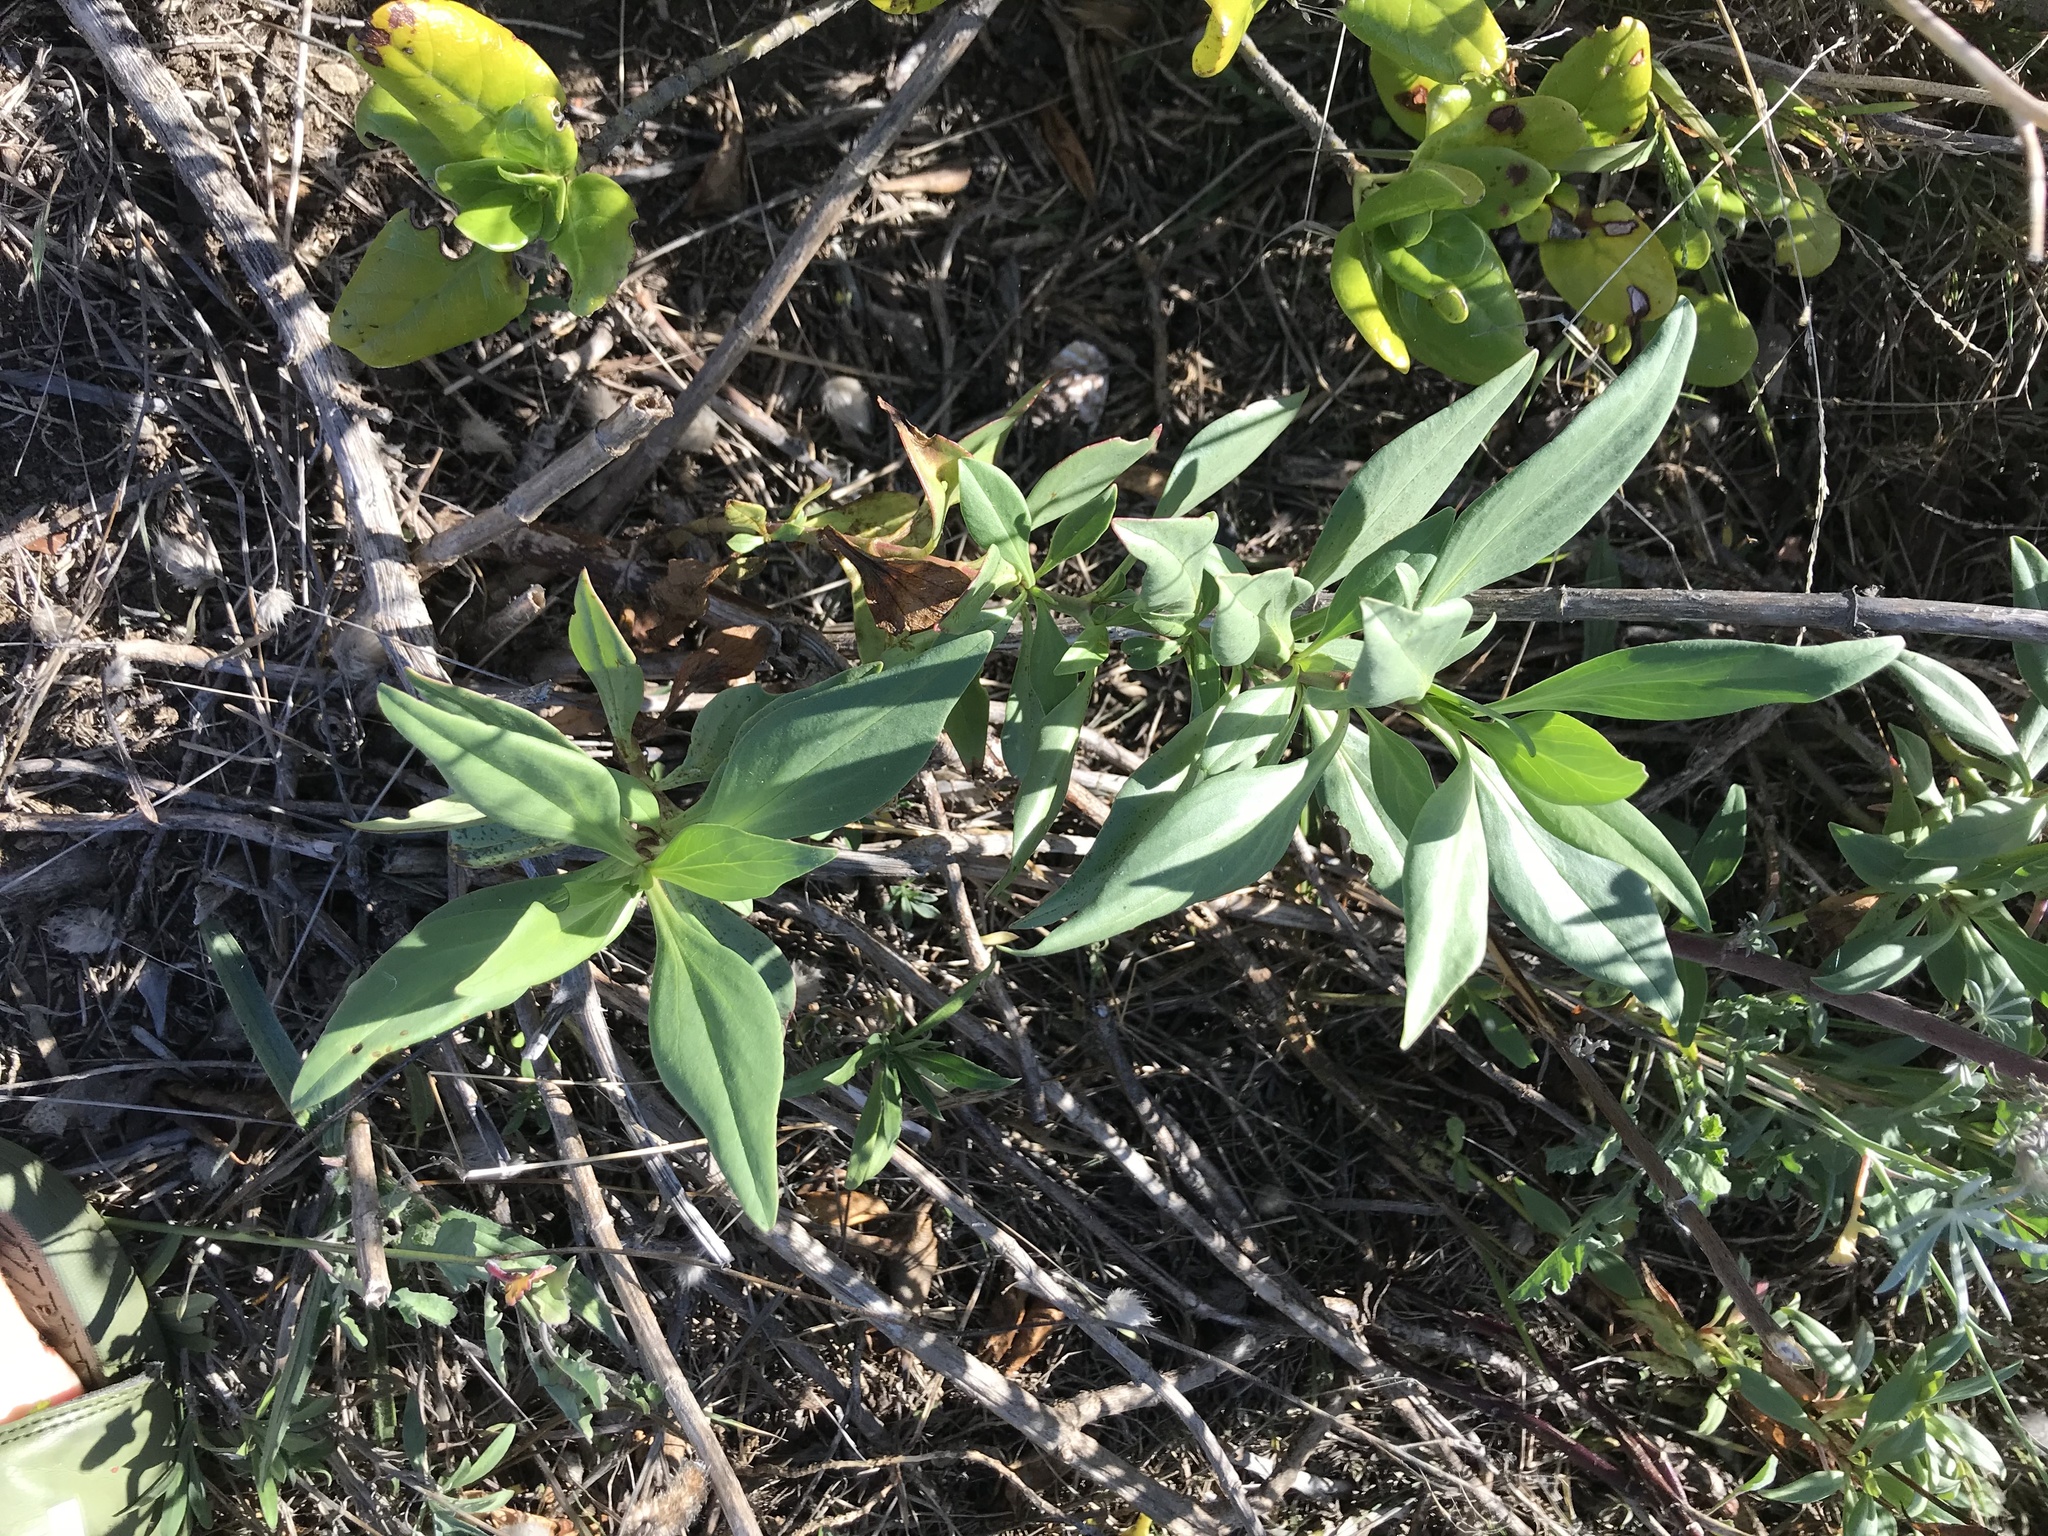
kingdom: Plantae
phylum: Tracheophyta
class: Magnoliopsida
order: Dipsacales
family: Caprifoliaceae
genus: Centranthus
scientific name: Centranthus ruber
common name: Red valerian
